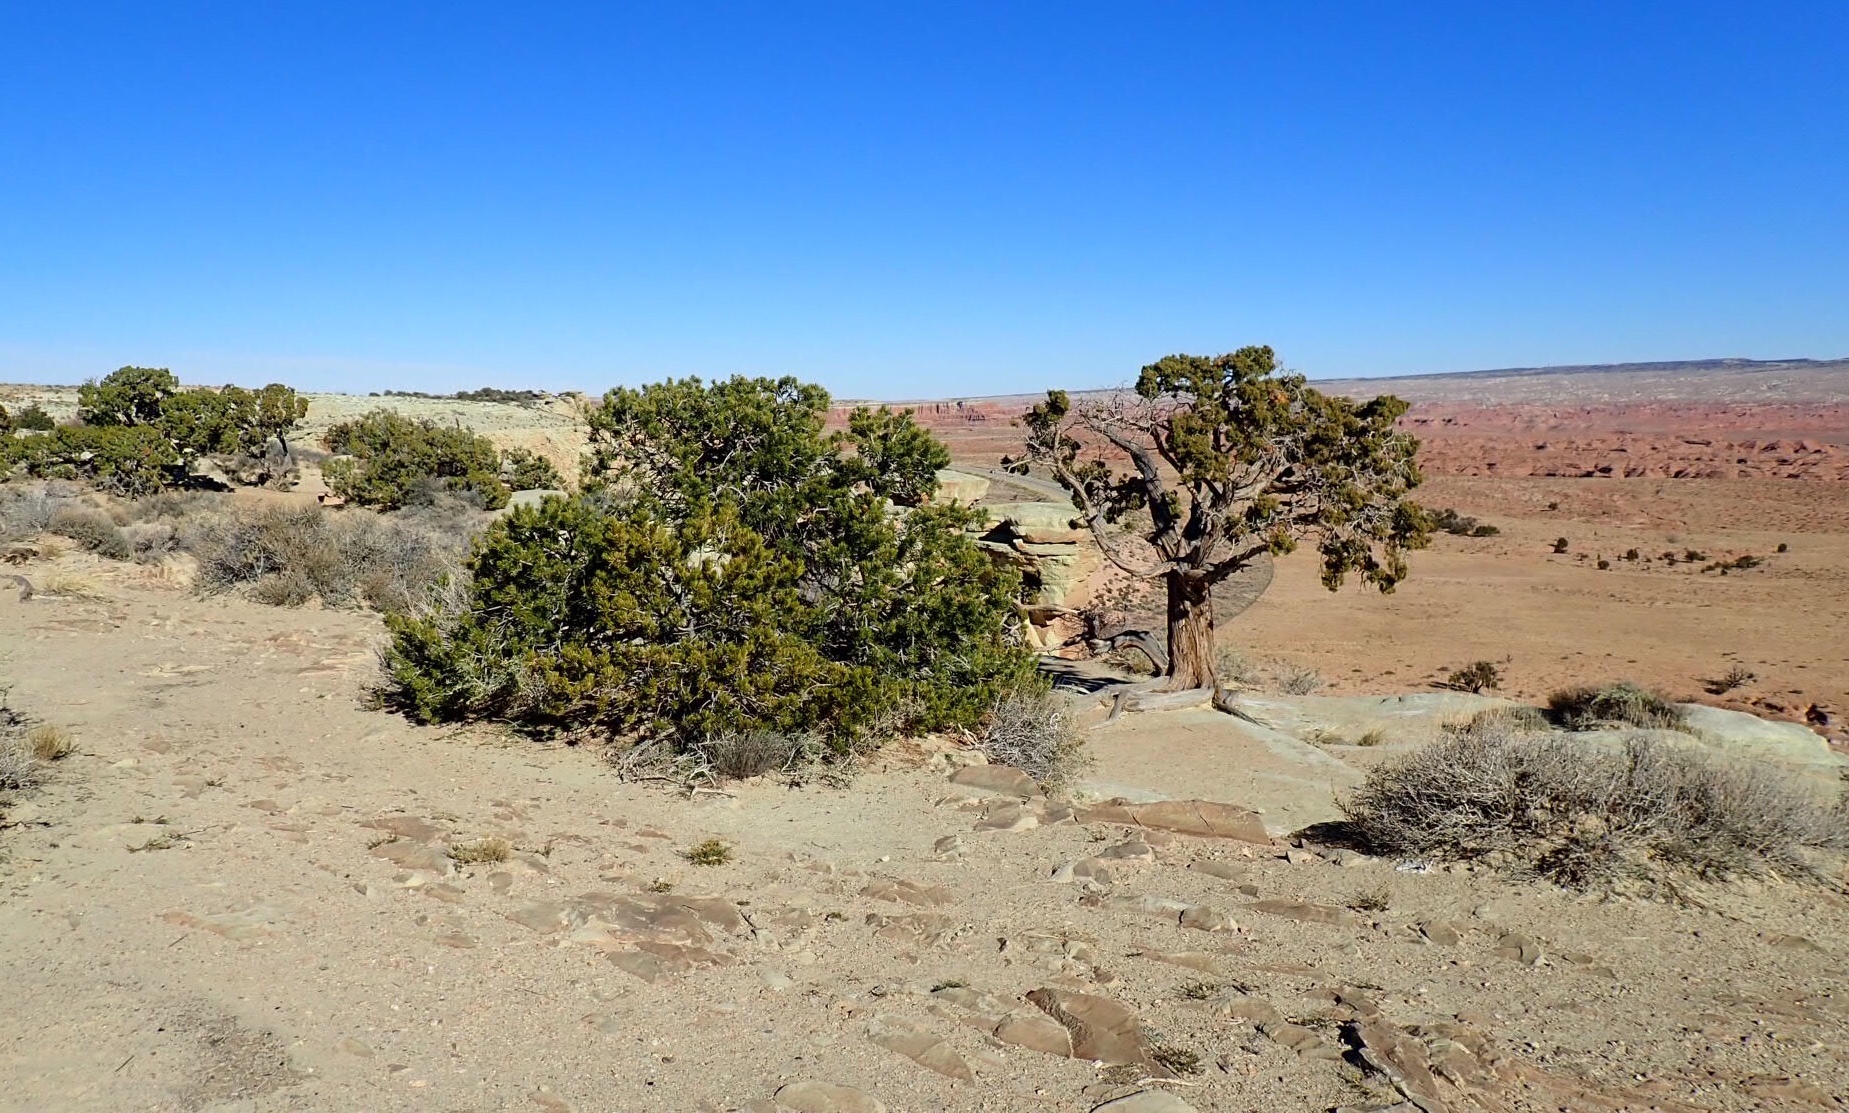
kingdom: Plantae
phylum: Tracheophyta
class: Pinopsida
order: Pinales
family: Pinaceae
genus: Pinus
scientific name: Pinus edulis
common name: Colorado pinyon
